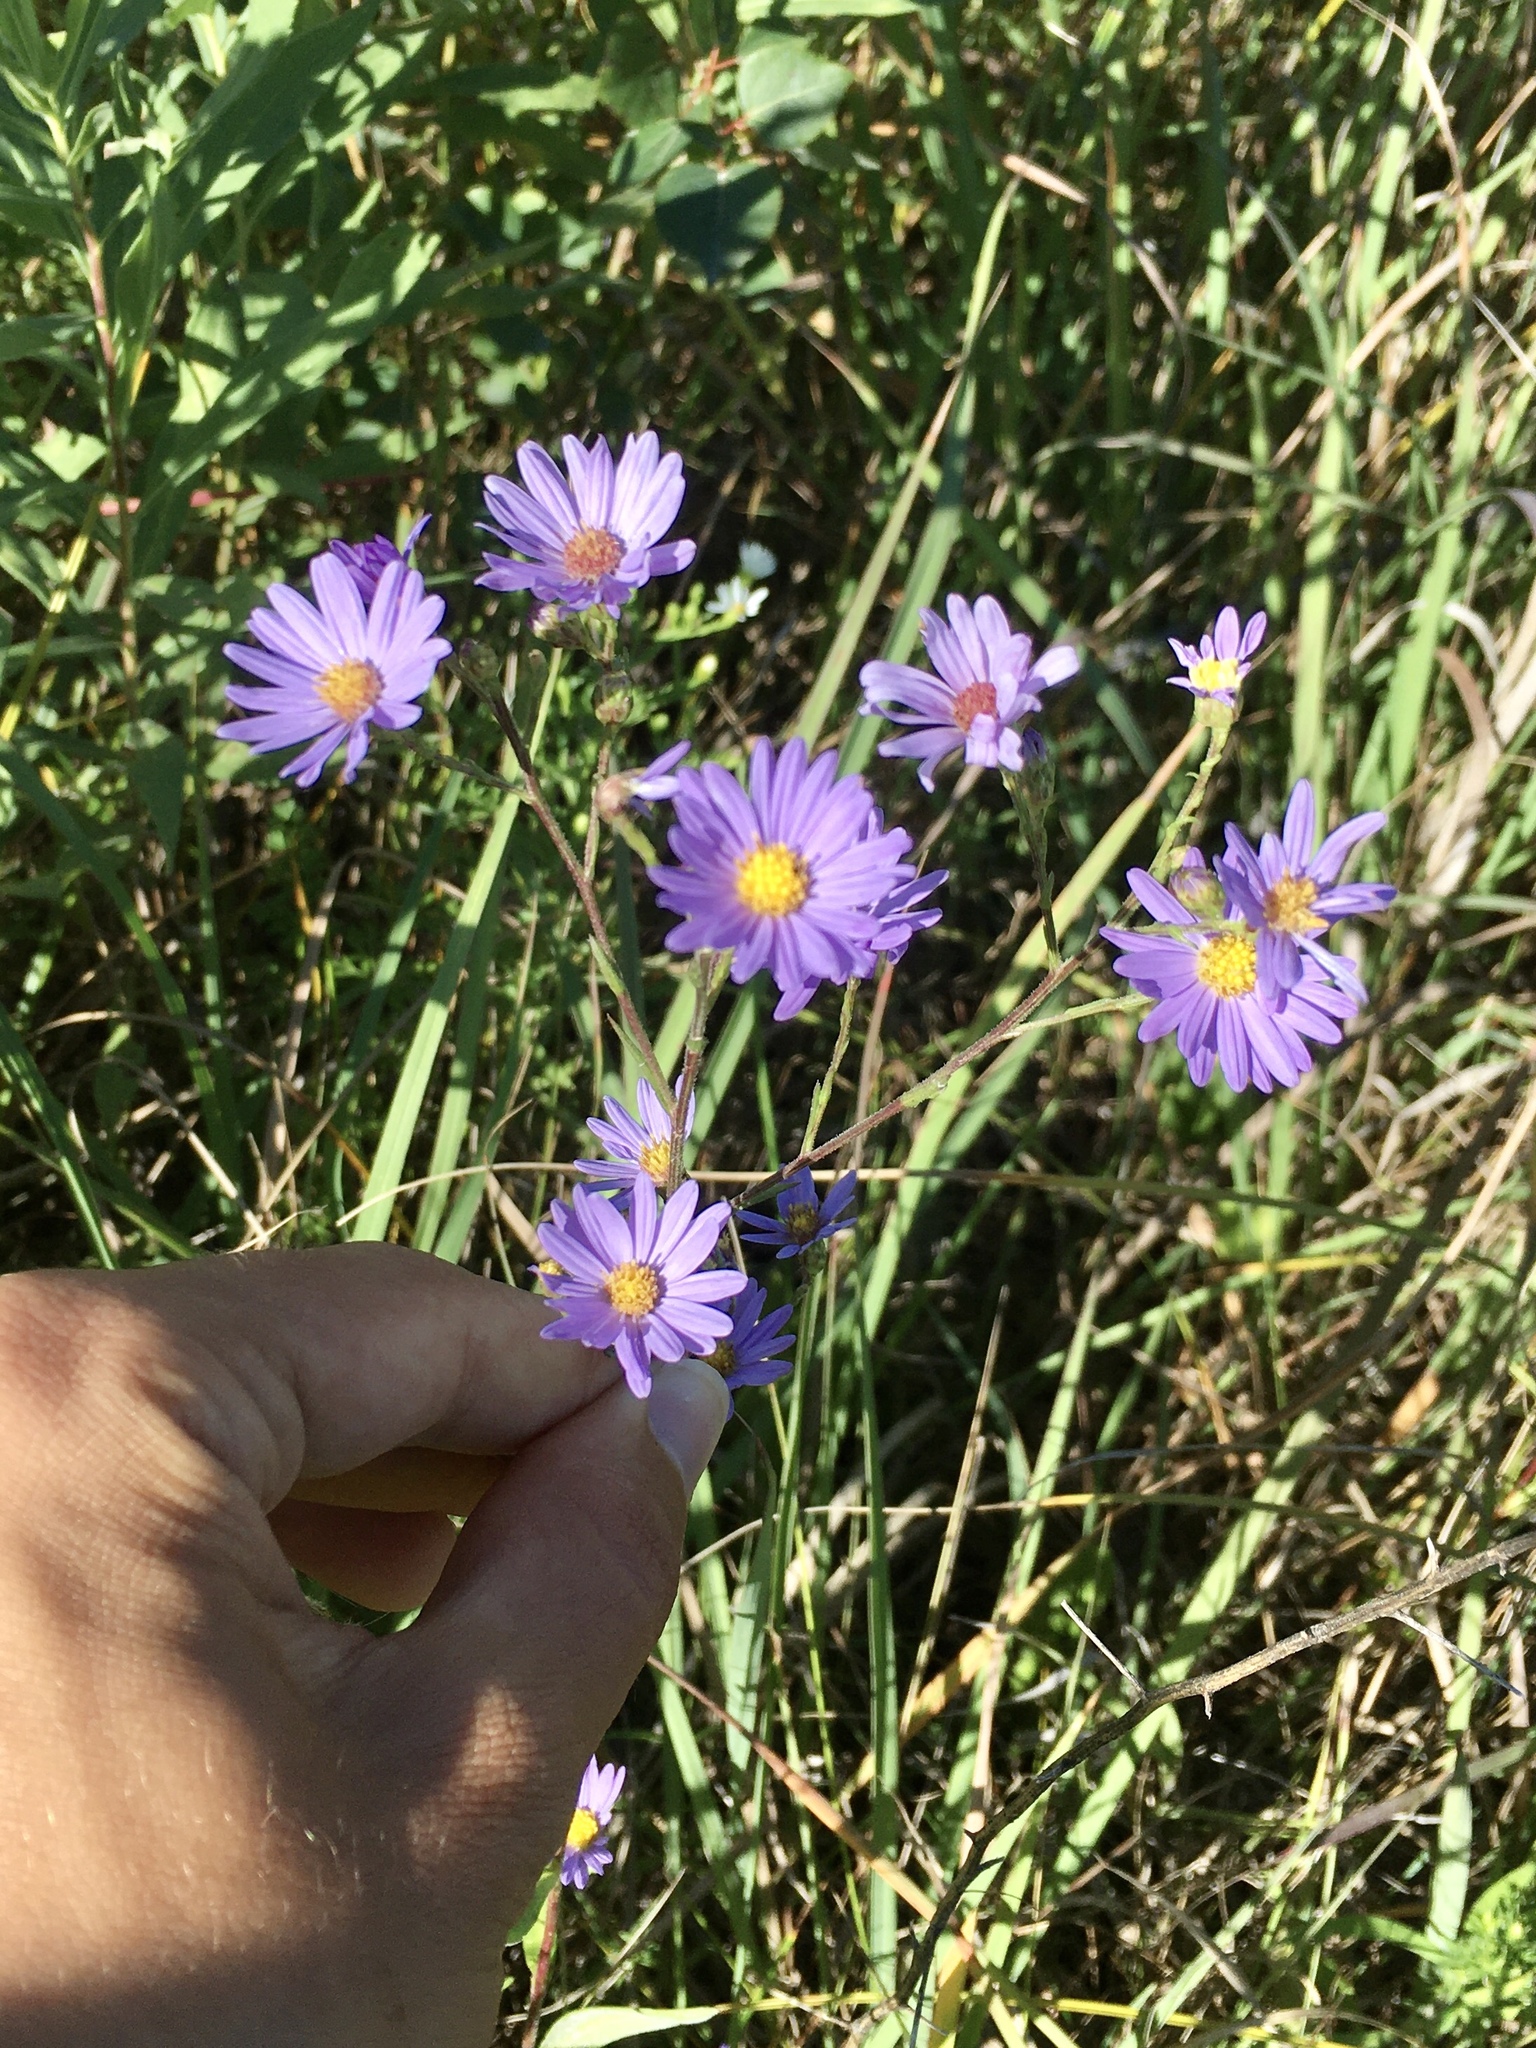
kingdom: Plantae
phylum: Tracheophyta
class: Magnoliopsida
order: Asterales
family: Asteraceae
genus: Symphyotrichum
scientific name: Symphyotrichum oolentangiense
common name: Azure aster
